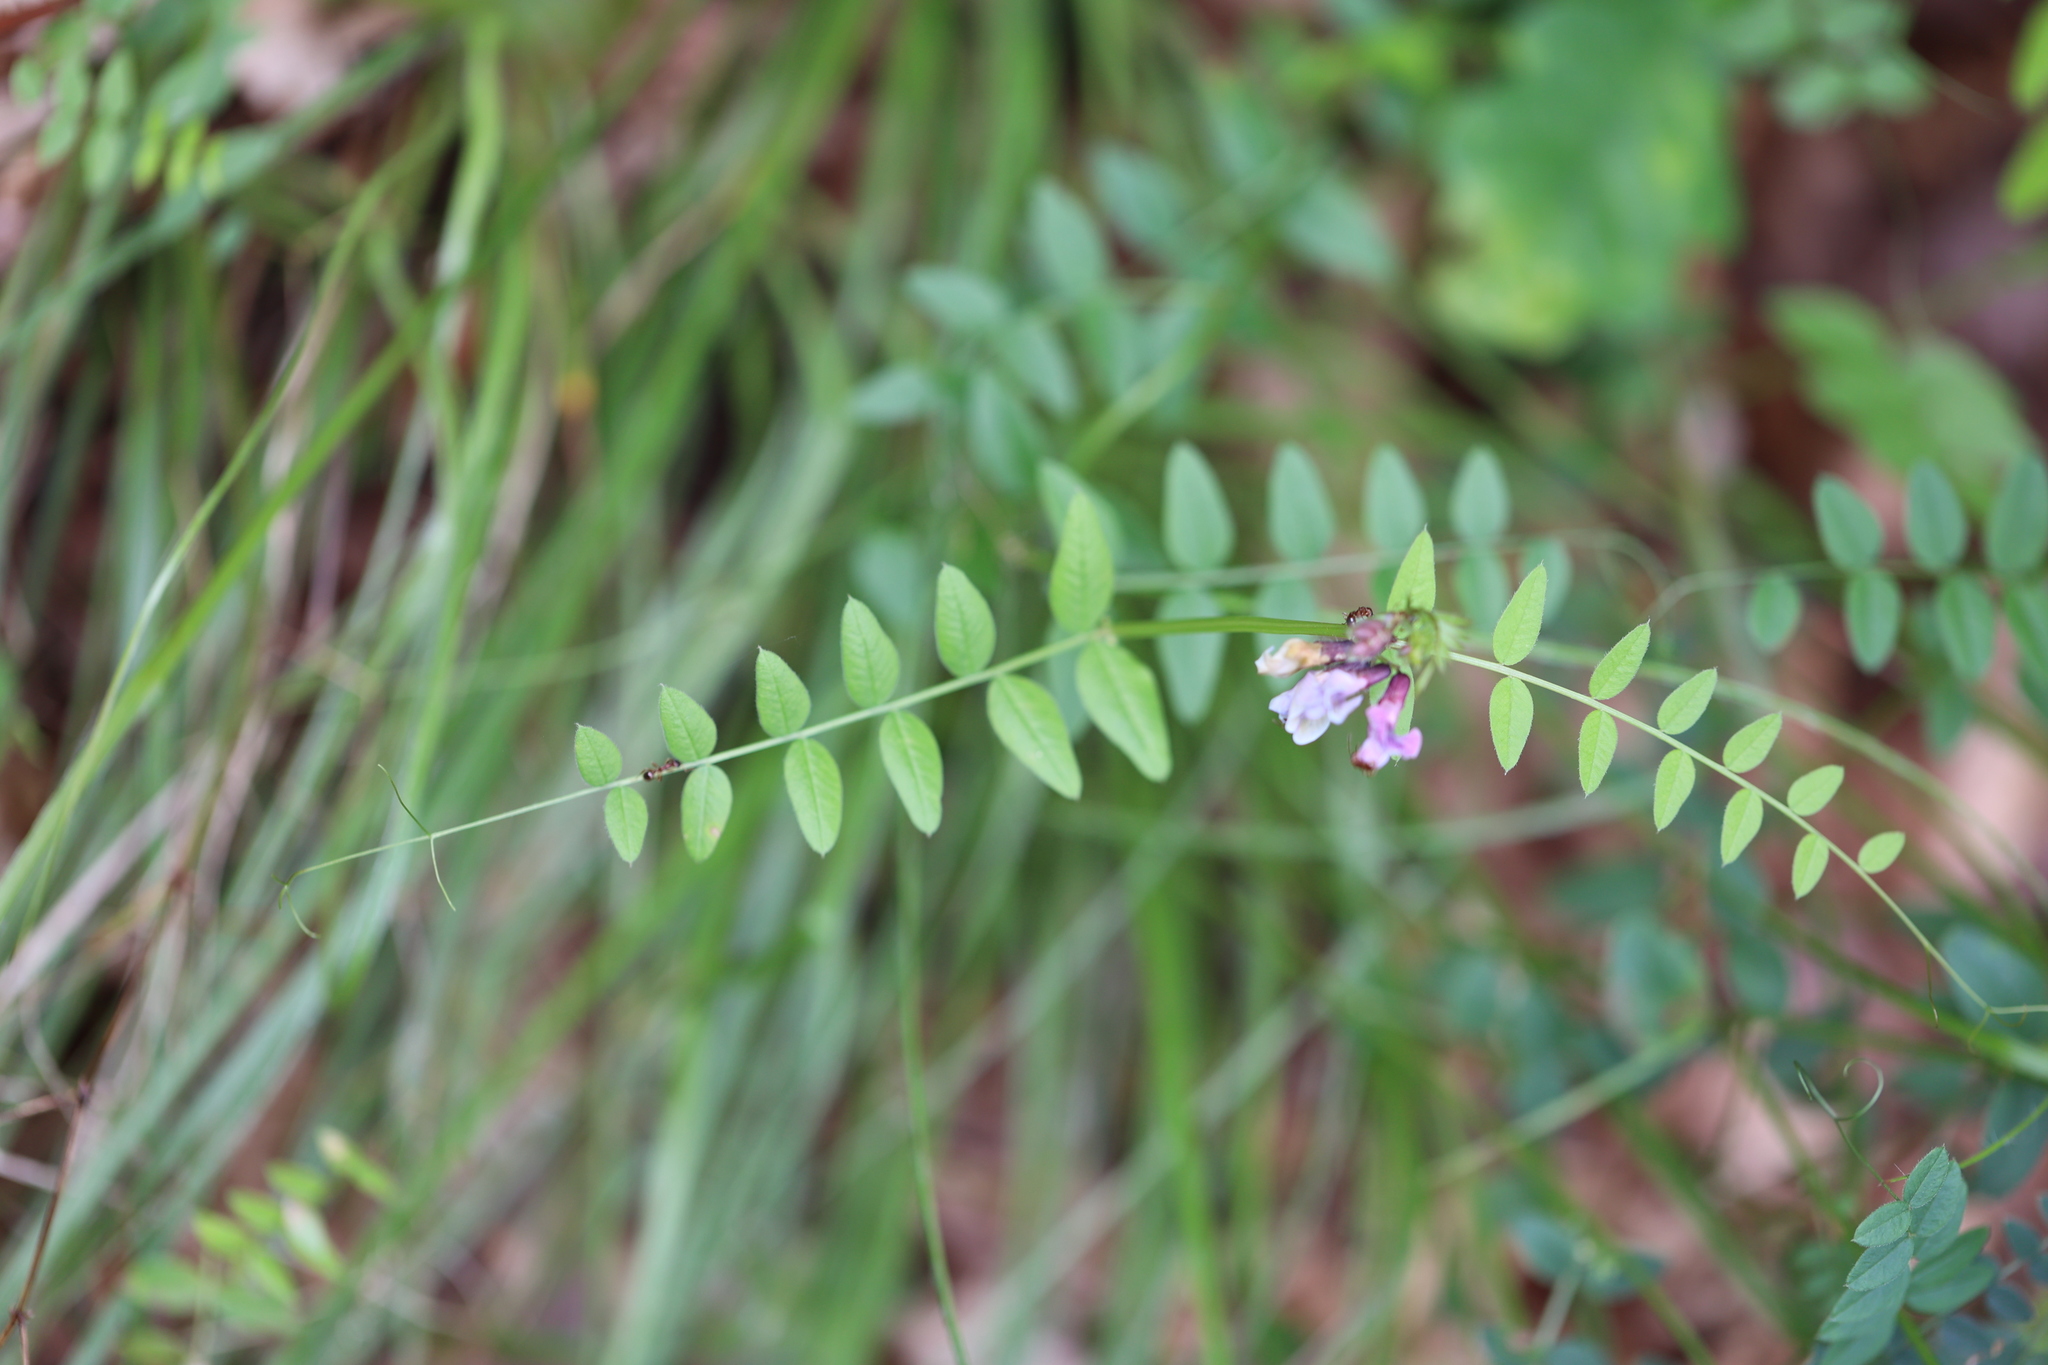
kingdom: Plantae
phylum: Tracheophyta
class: Magnoliopsida
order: Fabales
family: Fabaceae
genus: Vicia
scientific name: Vicia sepium
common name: Bush vetch
